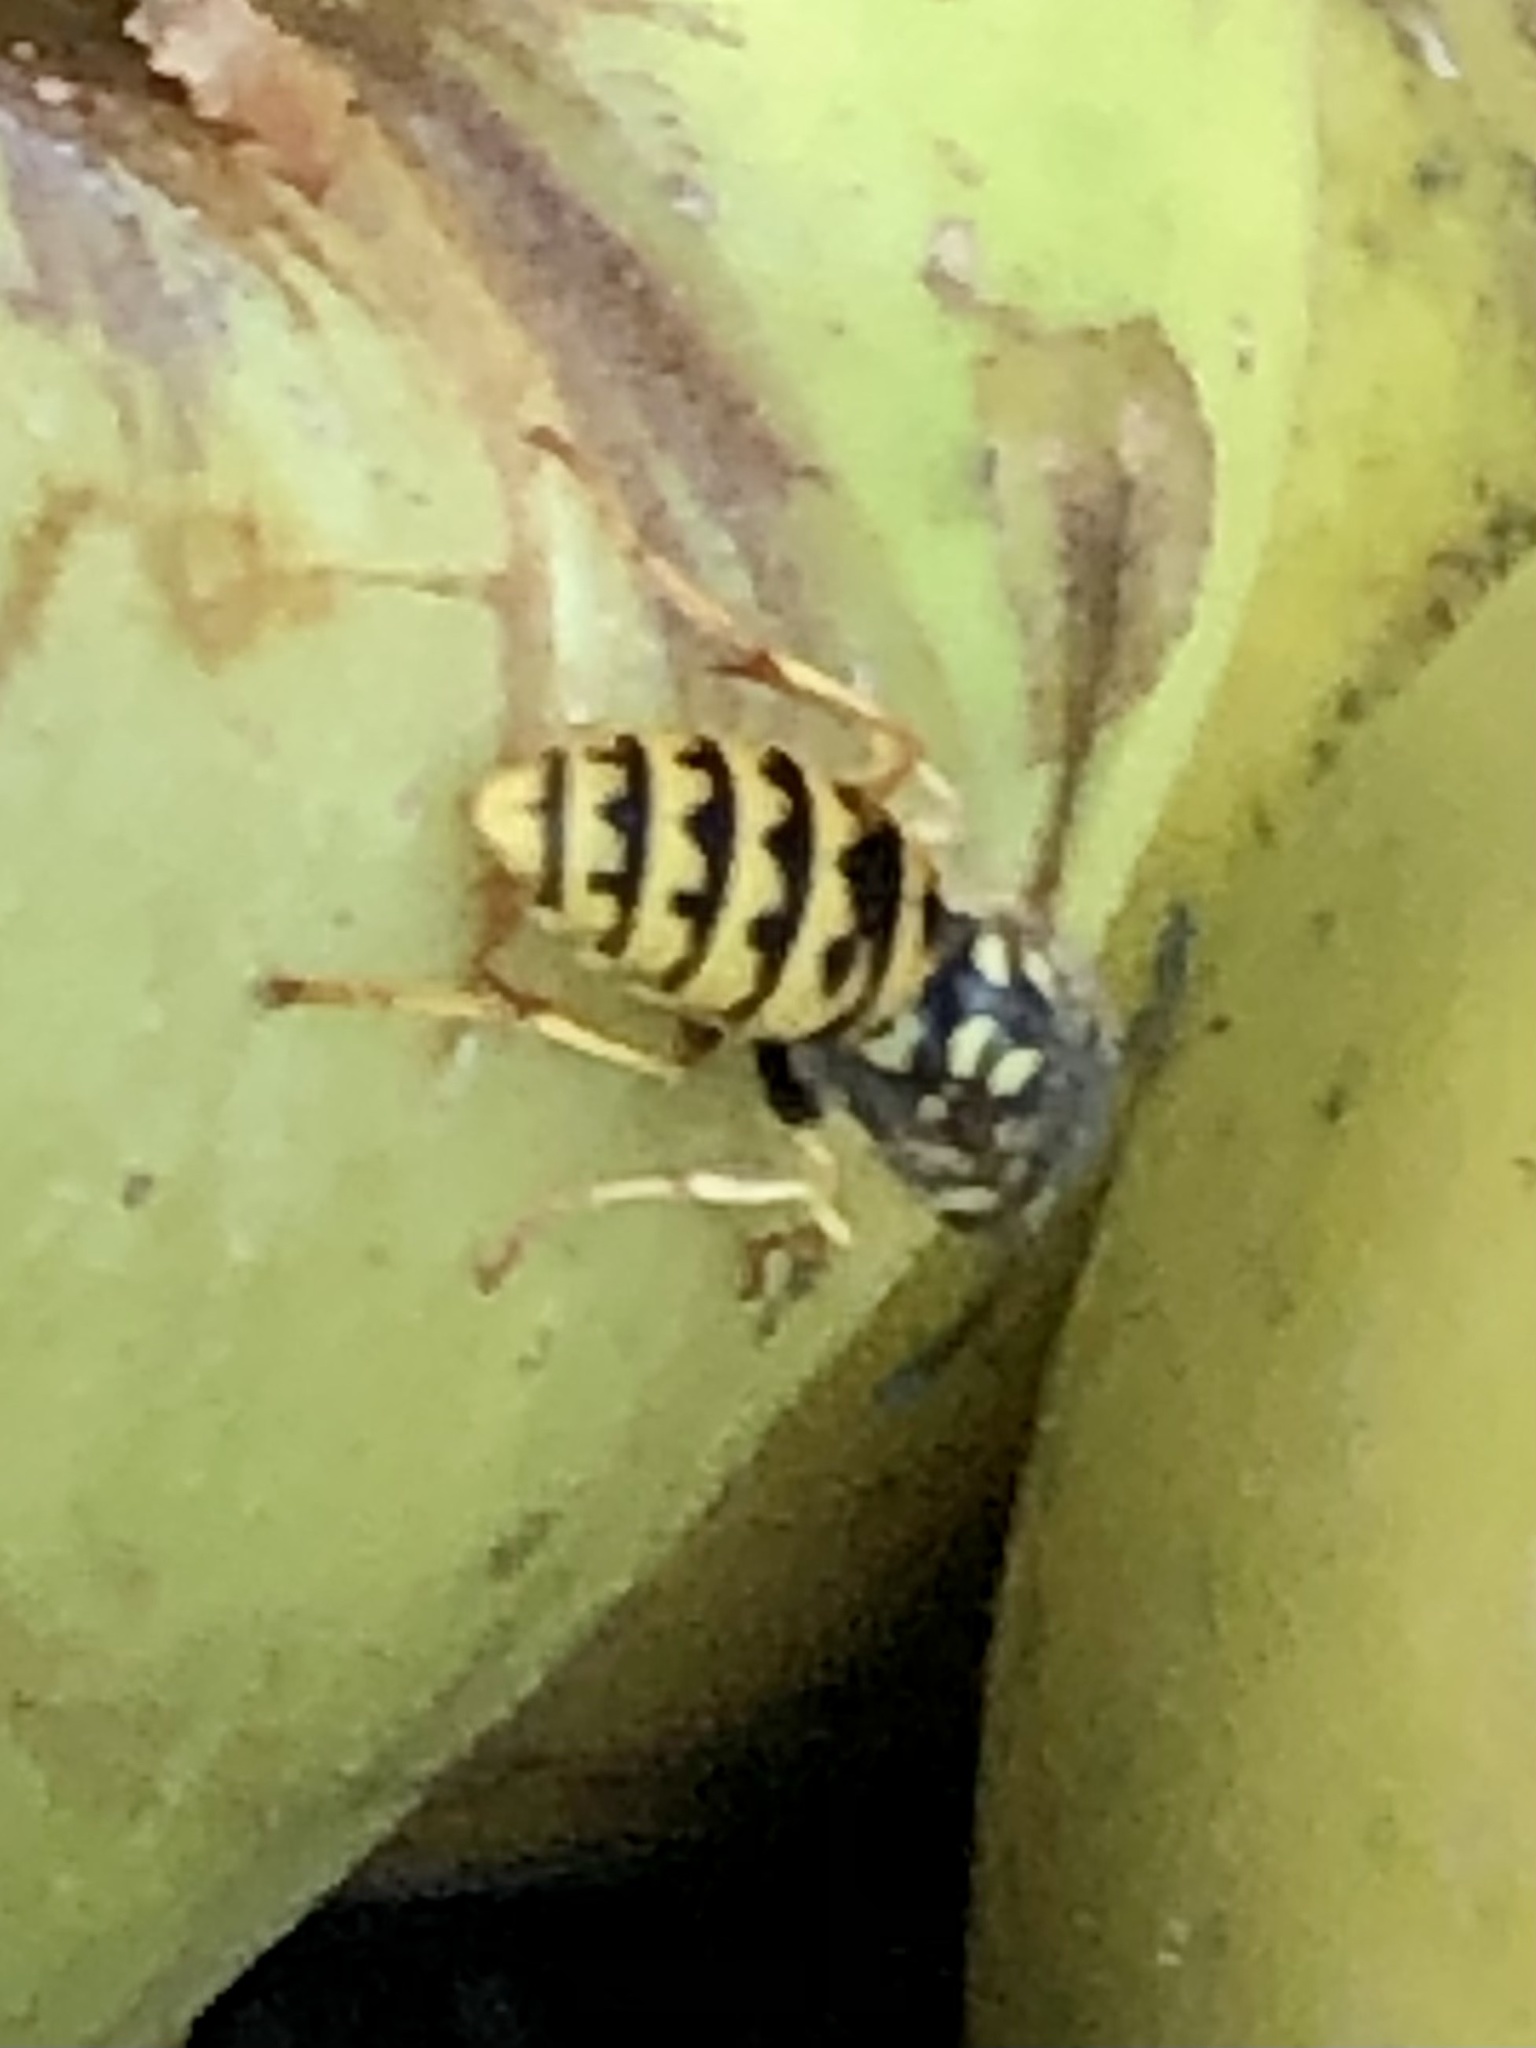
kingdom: Animalia
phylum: Arthropoda
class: Insecta
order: Hymenoptera
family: Vespidae
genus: Vespula
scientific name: Vespula germanica
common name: German wasp
